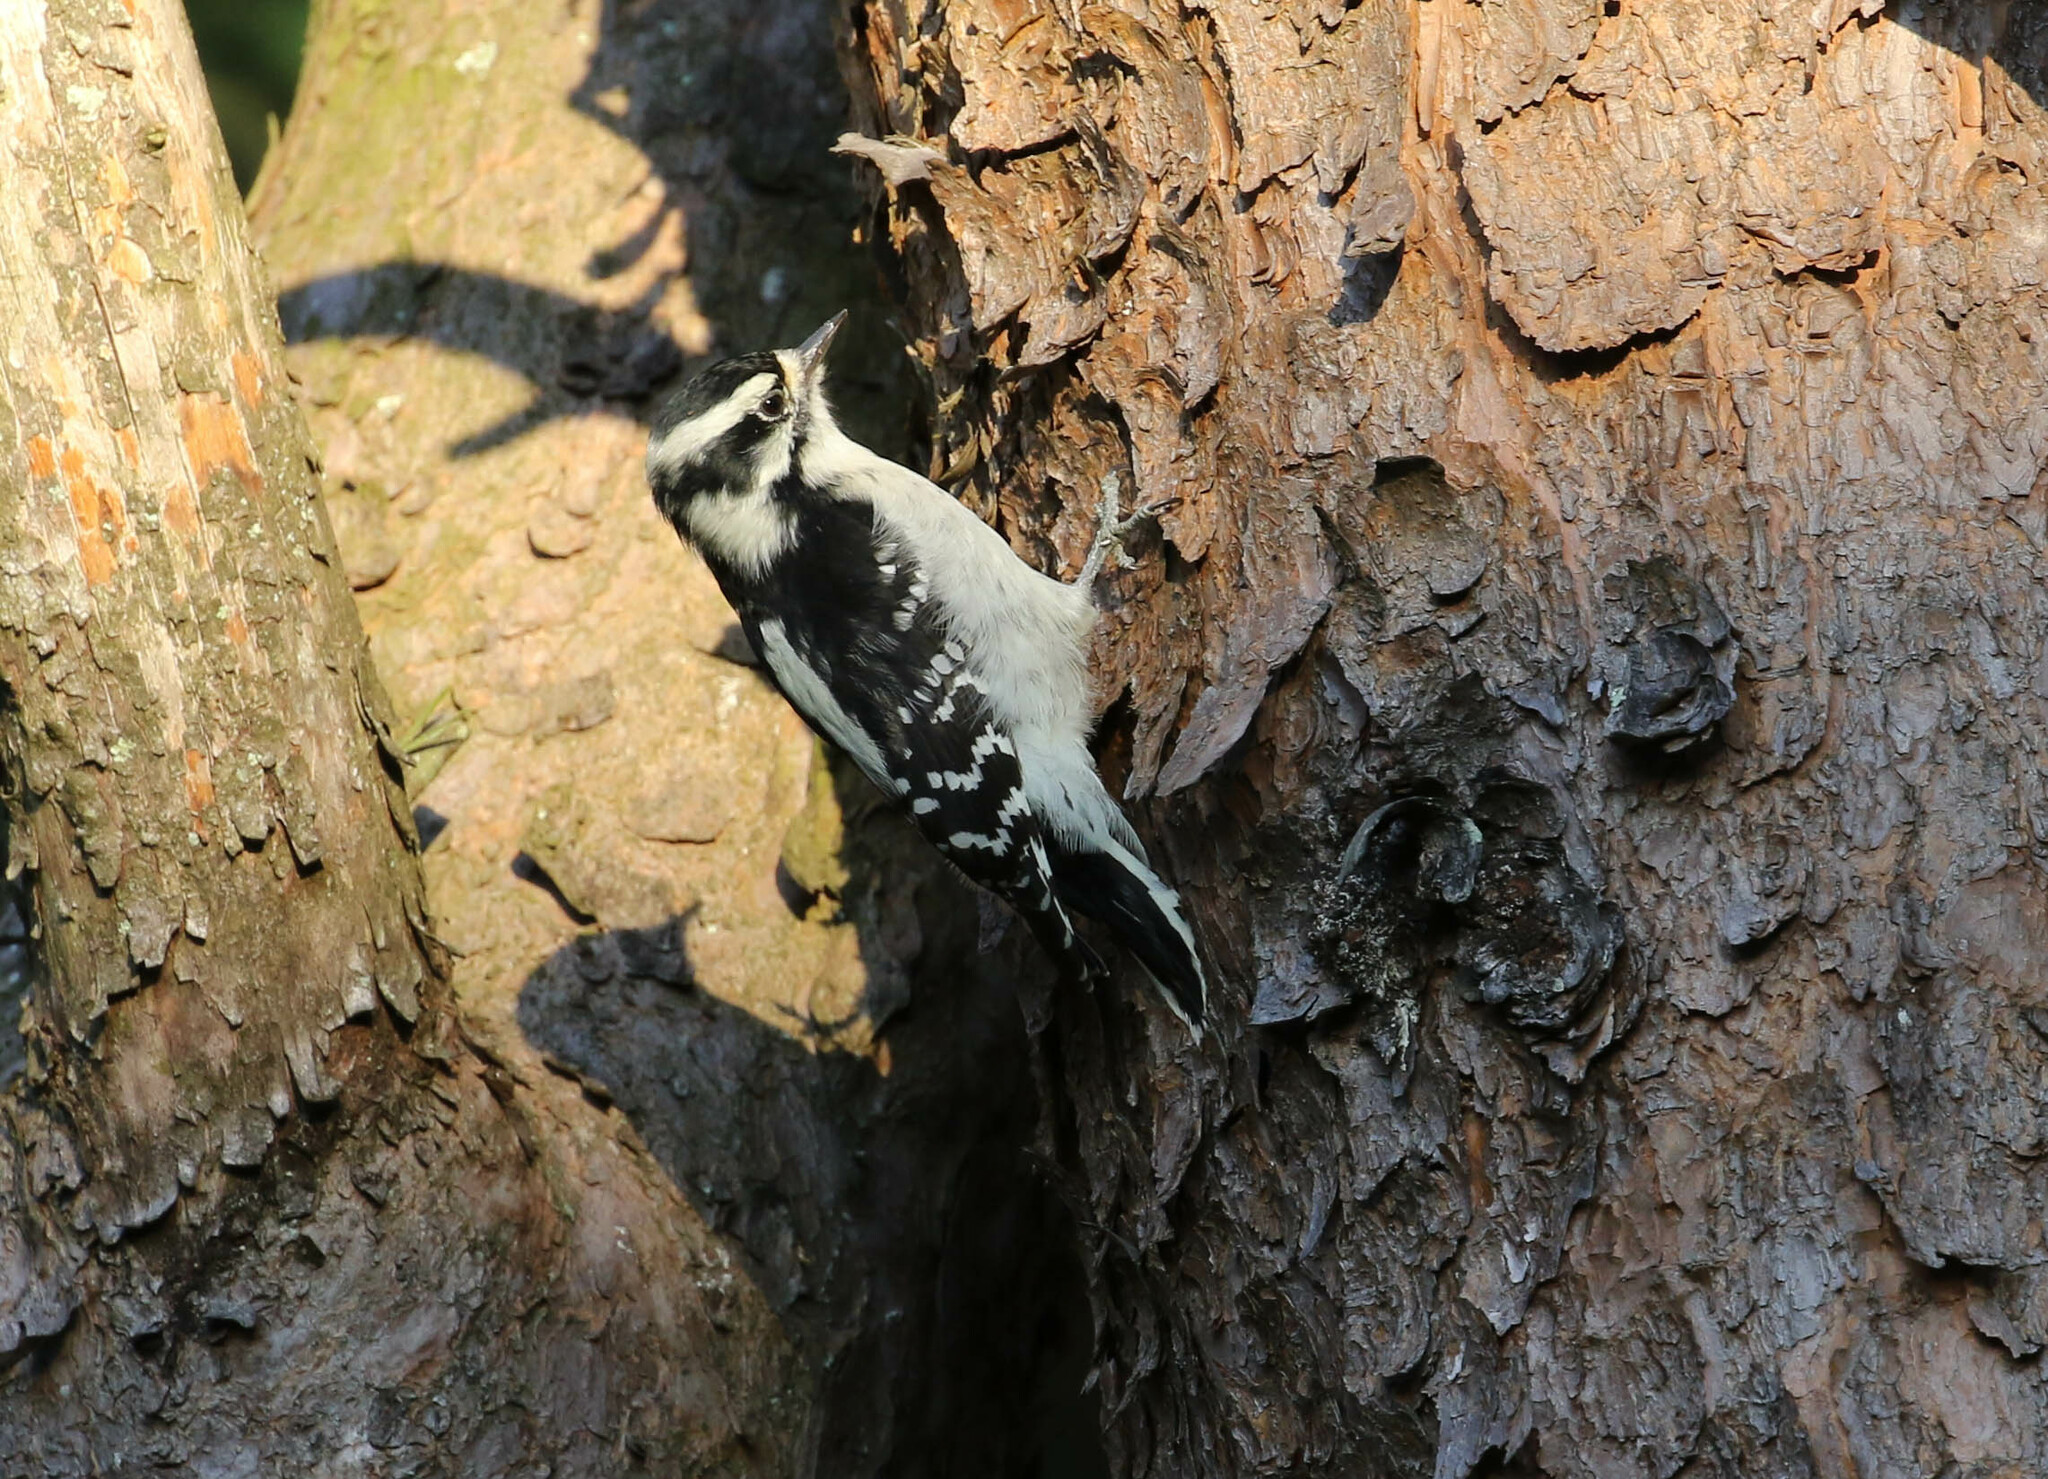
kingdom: Animalia
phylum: Chordata
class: Aves
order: Piciformes
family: Picidae
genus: Dryobates
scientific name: Dryobates pubescens
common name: Downy woodpecker
